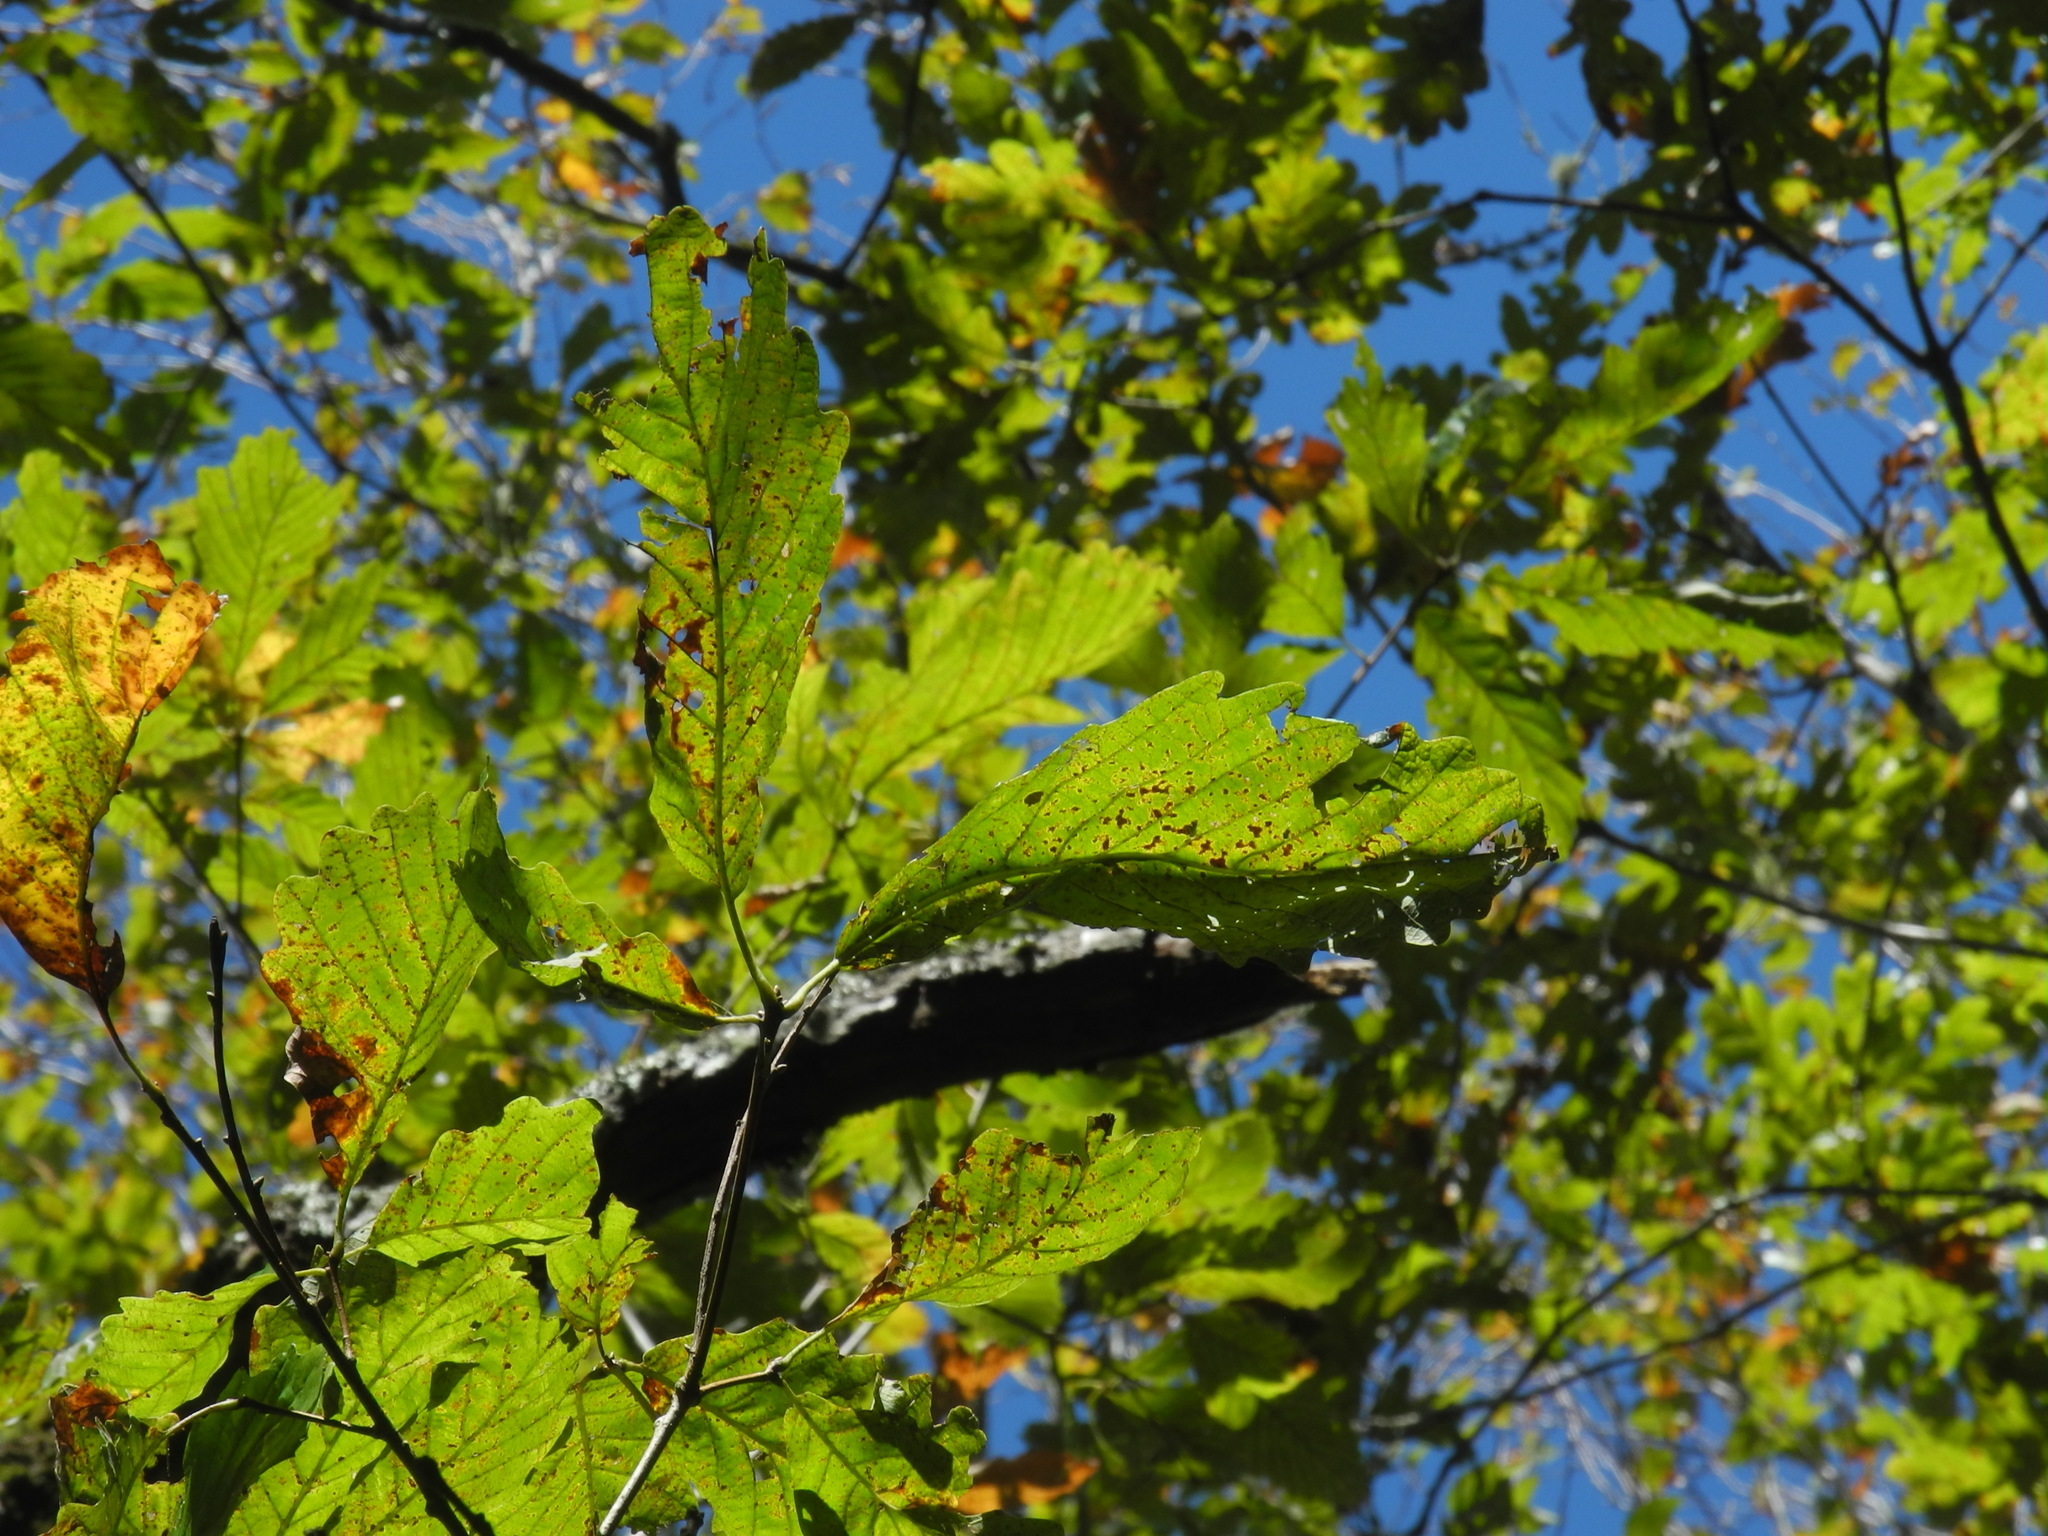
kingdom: Plantae
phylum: Tracheophyta
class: Magnoliopsida
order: Fagales
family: Fagaceae
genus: Quercus
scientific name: Quercus montana
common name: Chestnut oak
